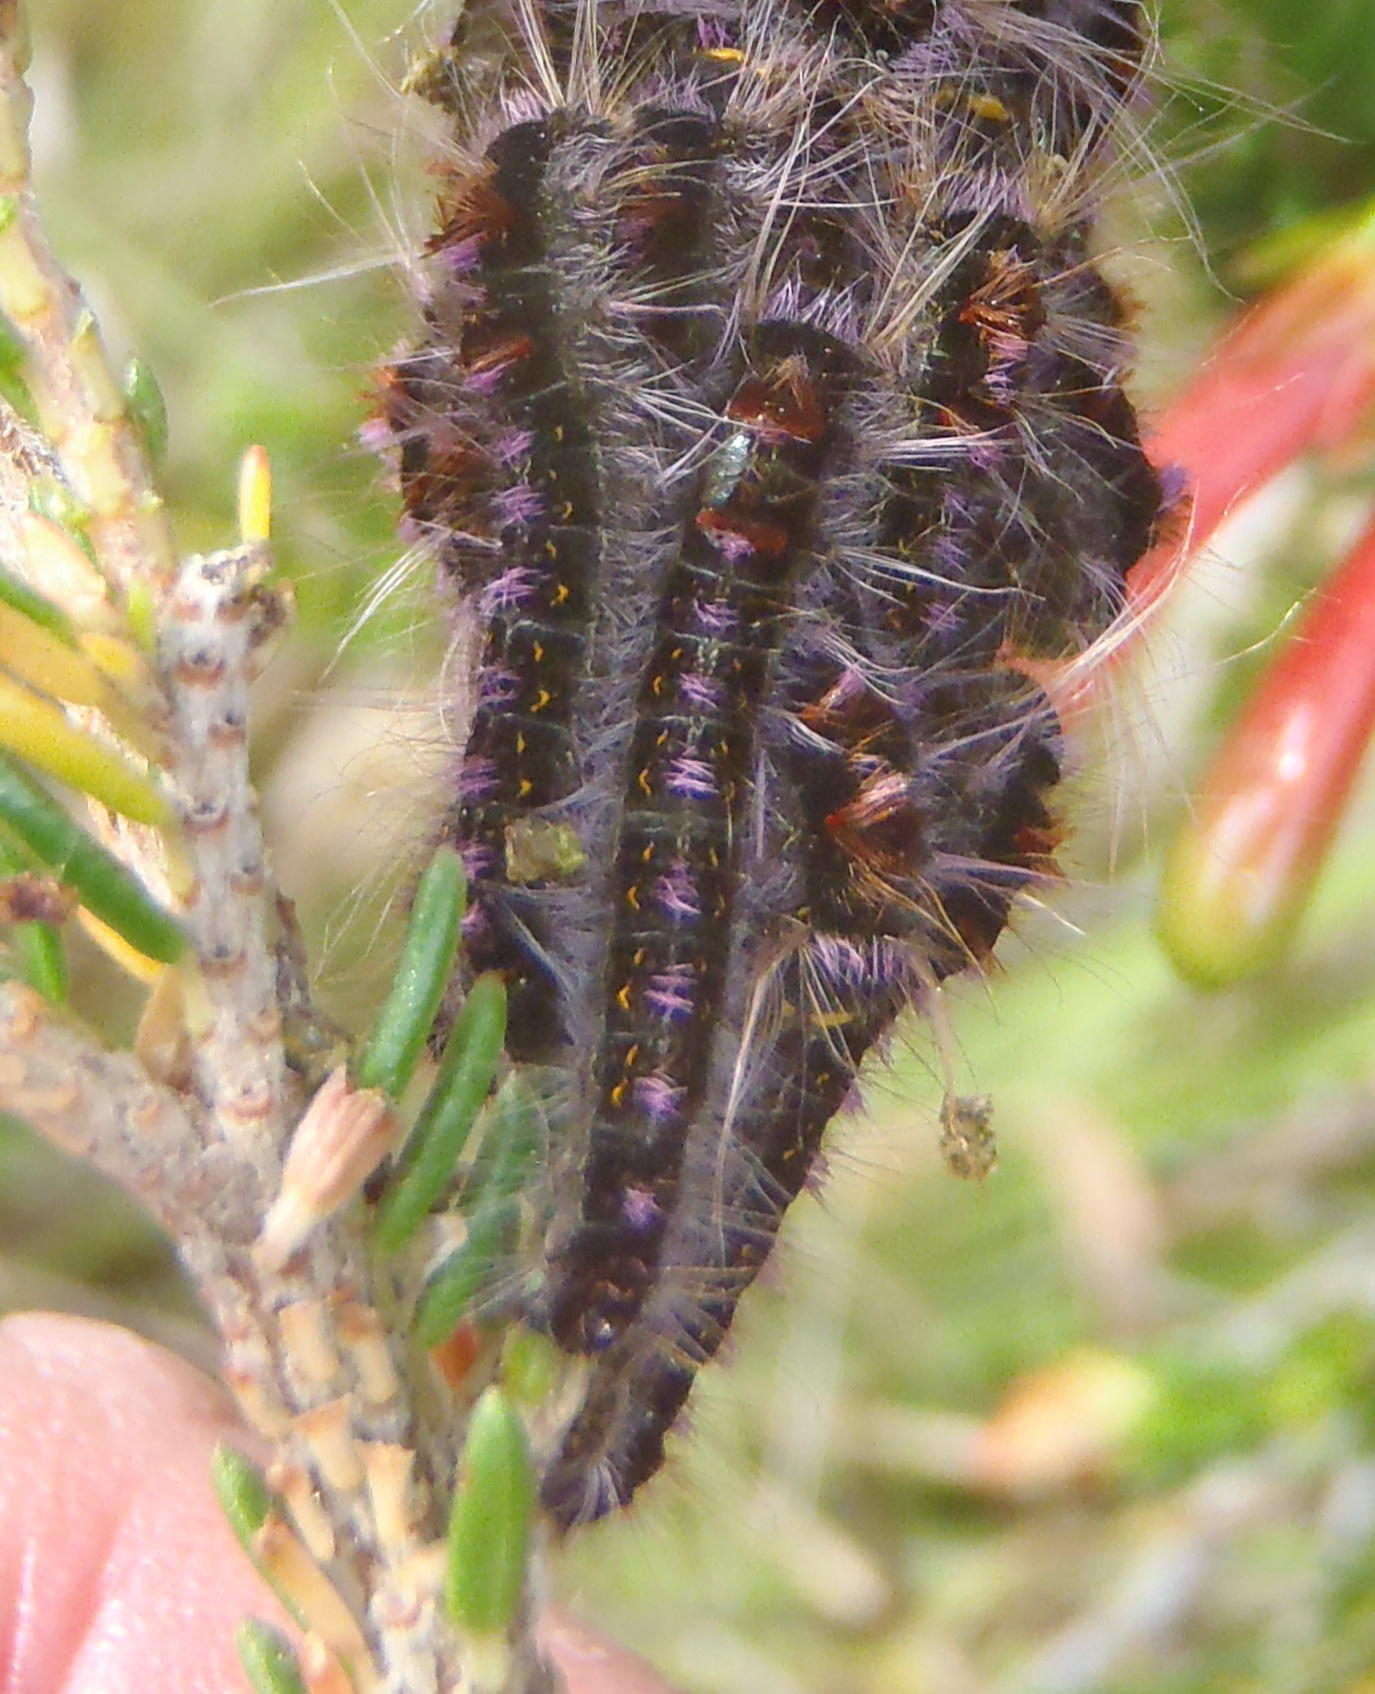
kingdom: Animalia
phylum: Arthropoda
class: Insecta
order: Lepidoptera
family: Lasiocampidae
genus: Eutricha
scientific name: Eutricha bifascia
